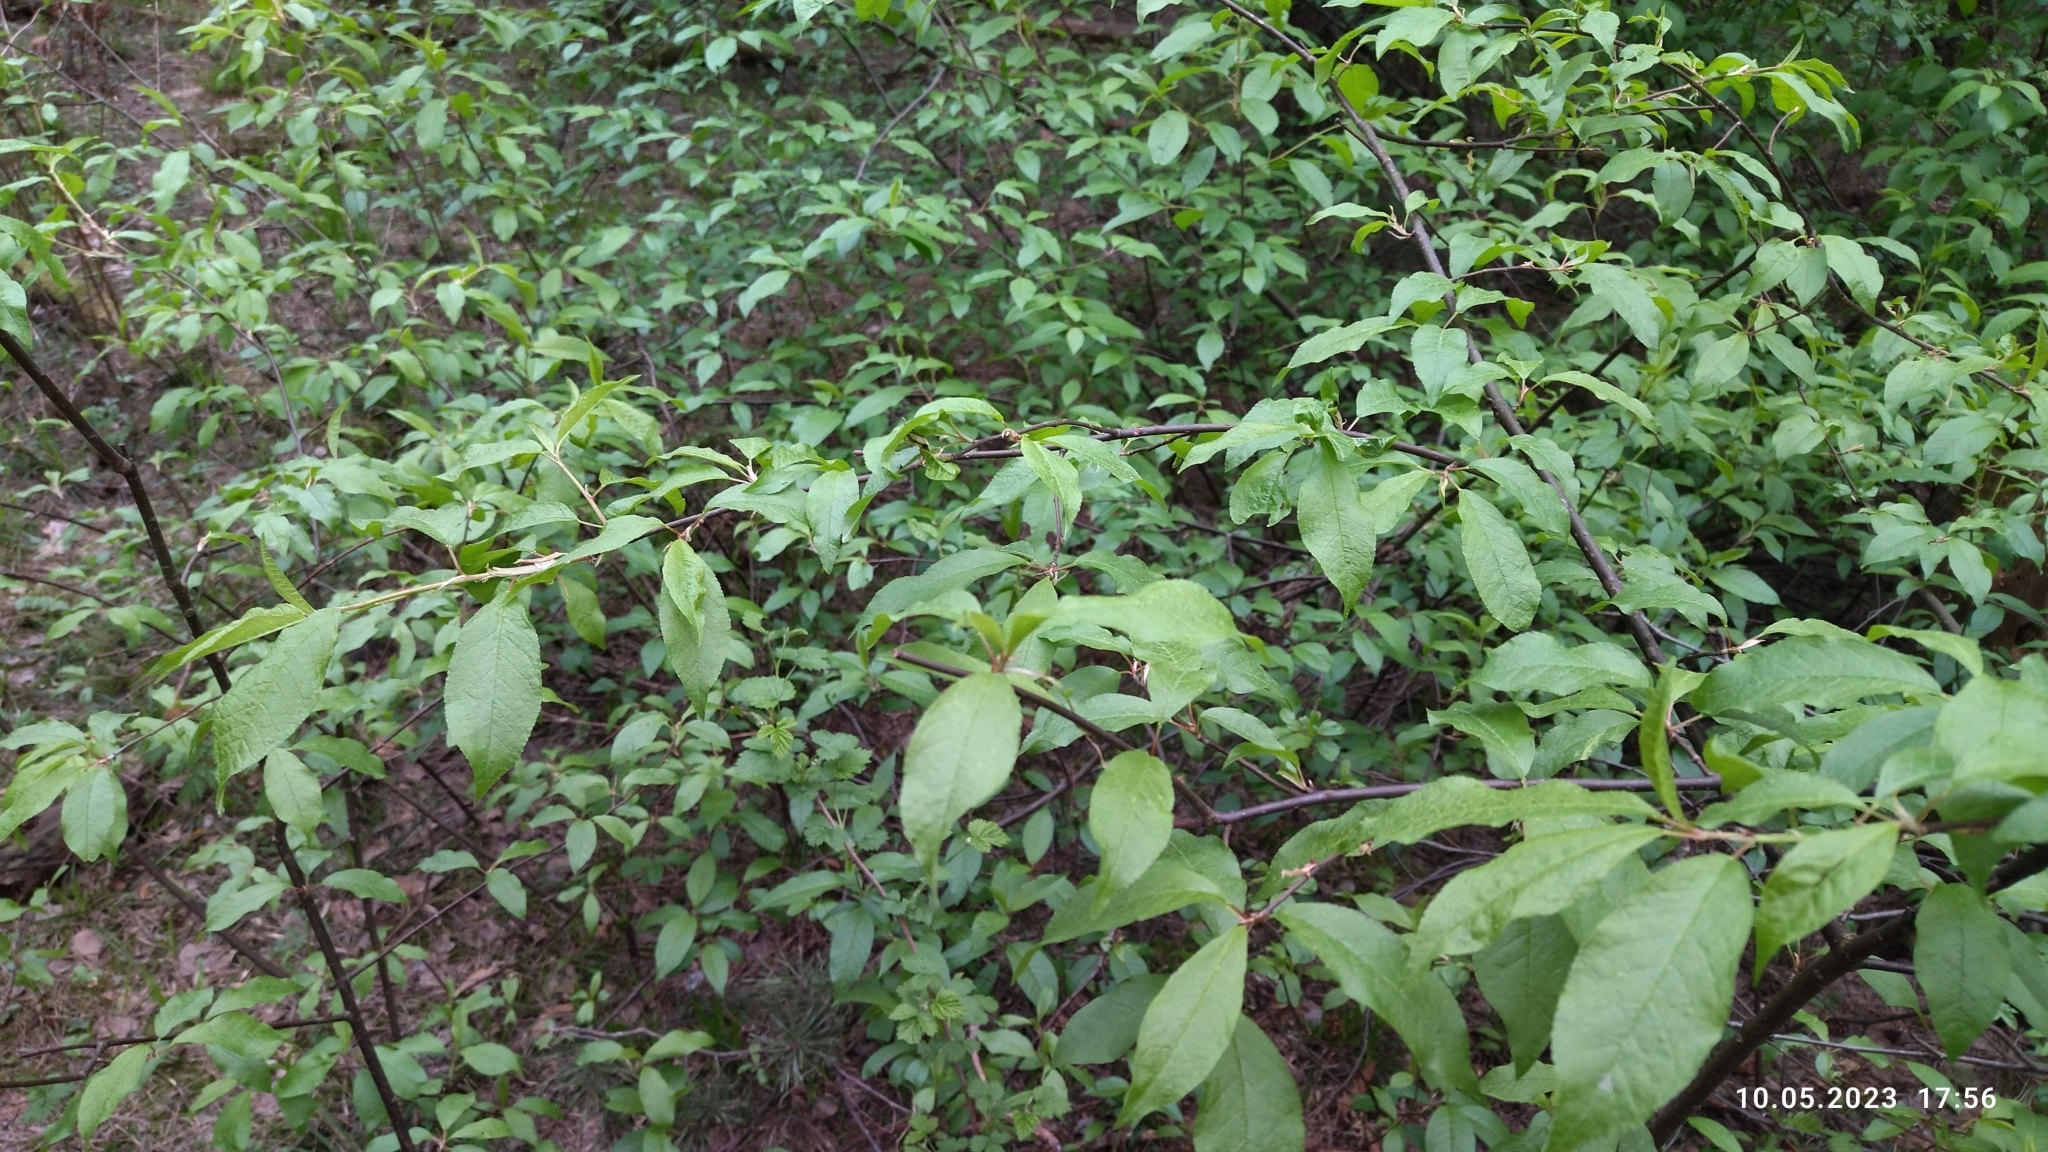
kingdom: Plantae
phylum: Tracheophyta
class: Magnoliopsida
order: Rosales
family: Rosaceae
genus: Prunus
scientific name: Prunus padus
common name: Bird cherry
